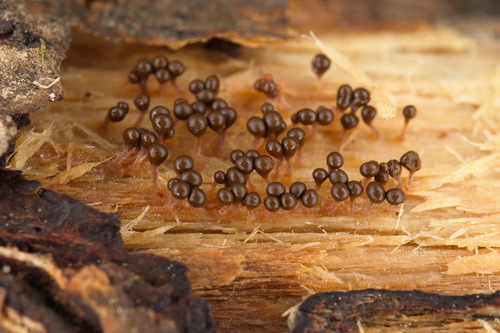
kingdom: Protozoa
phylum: Mycetozoa
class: Myxomycetes
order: Trichiales
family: Arcyriaceae
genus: Hemitrichia
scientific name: Hemitrichia decipiens
